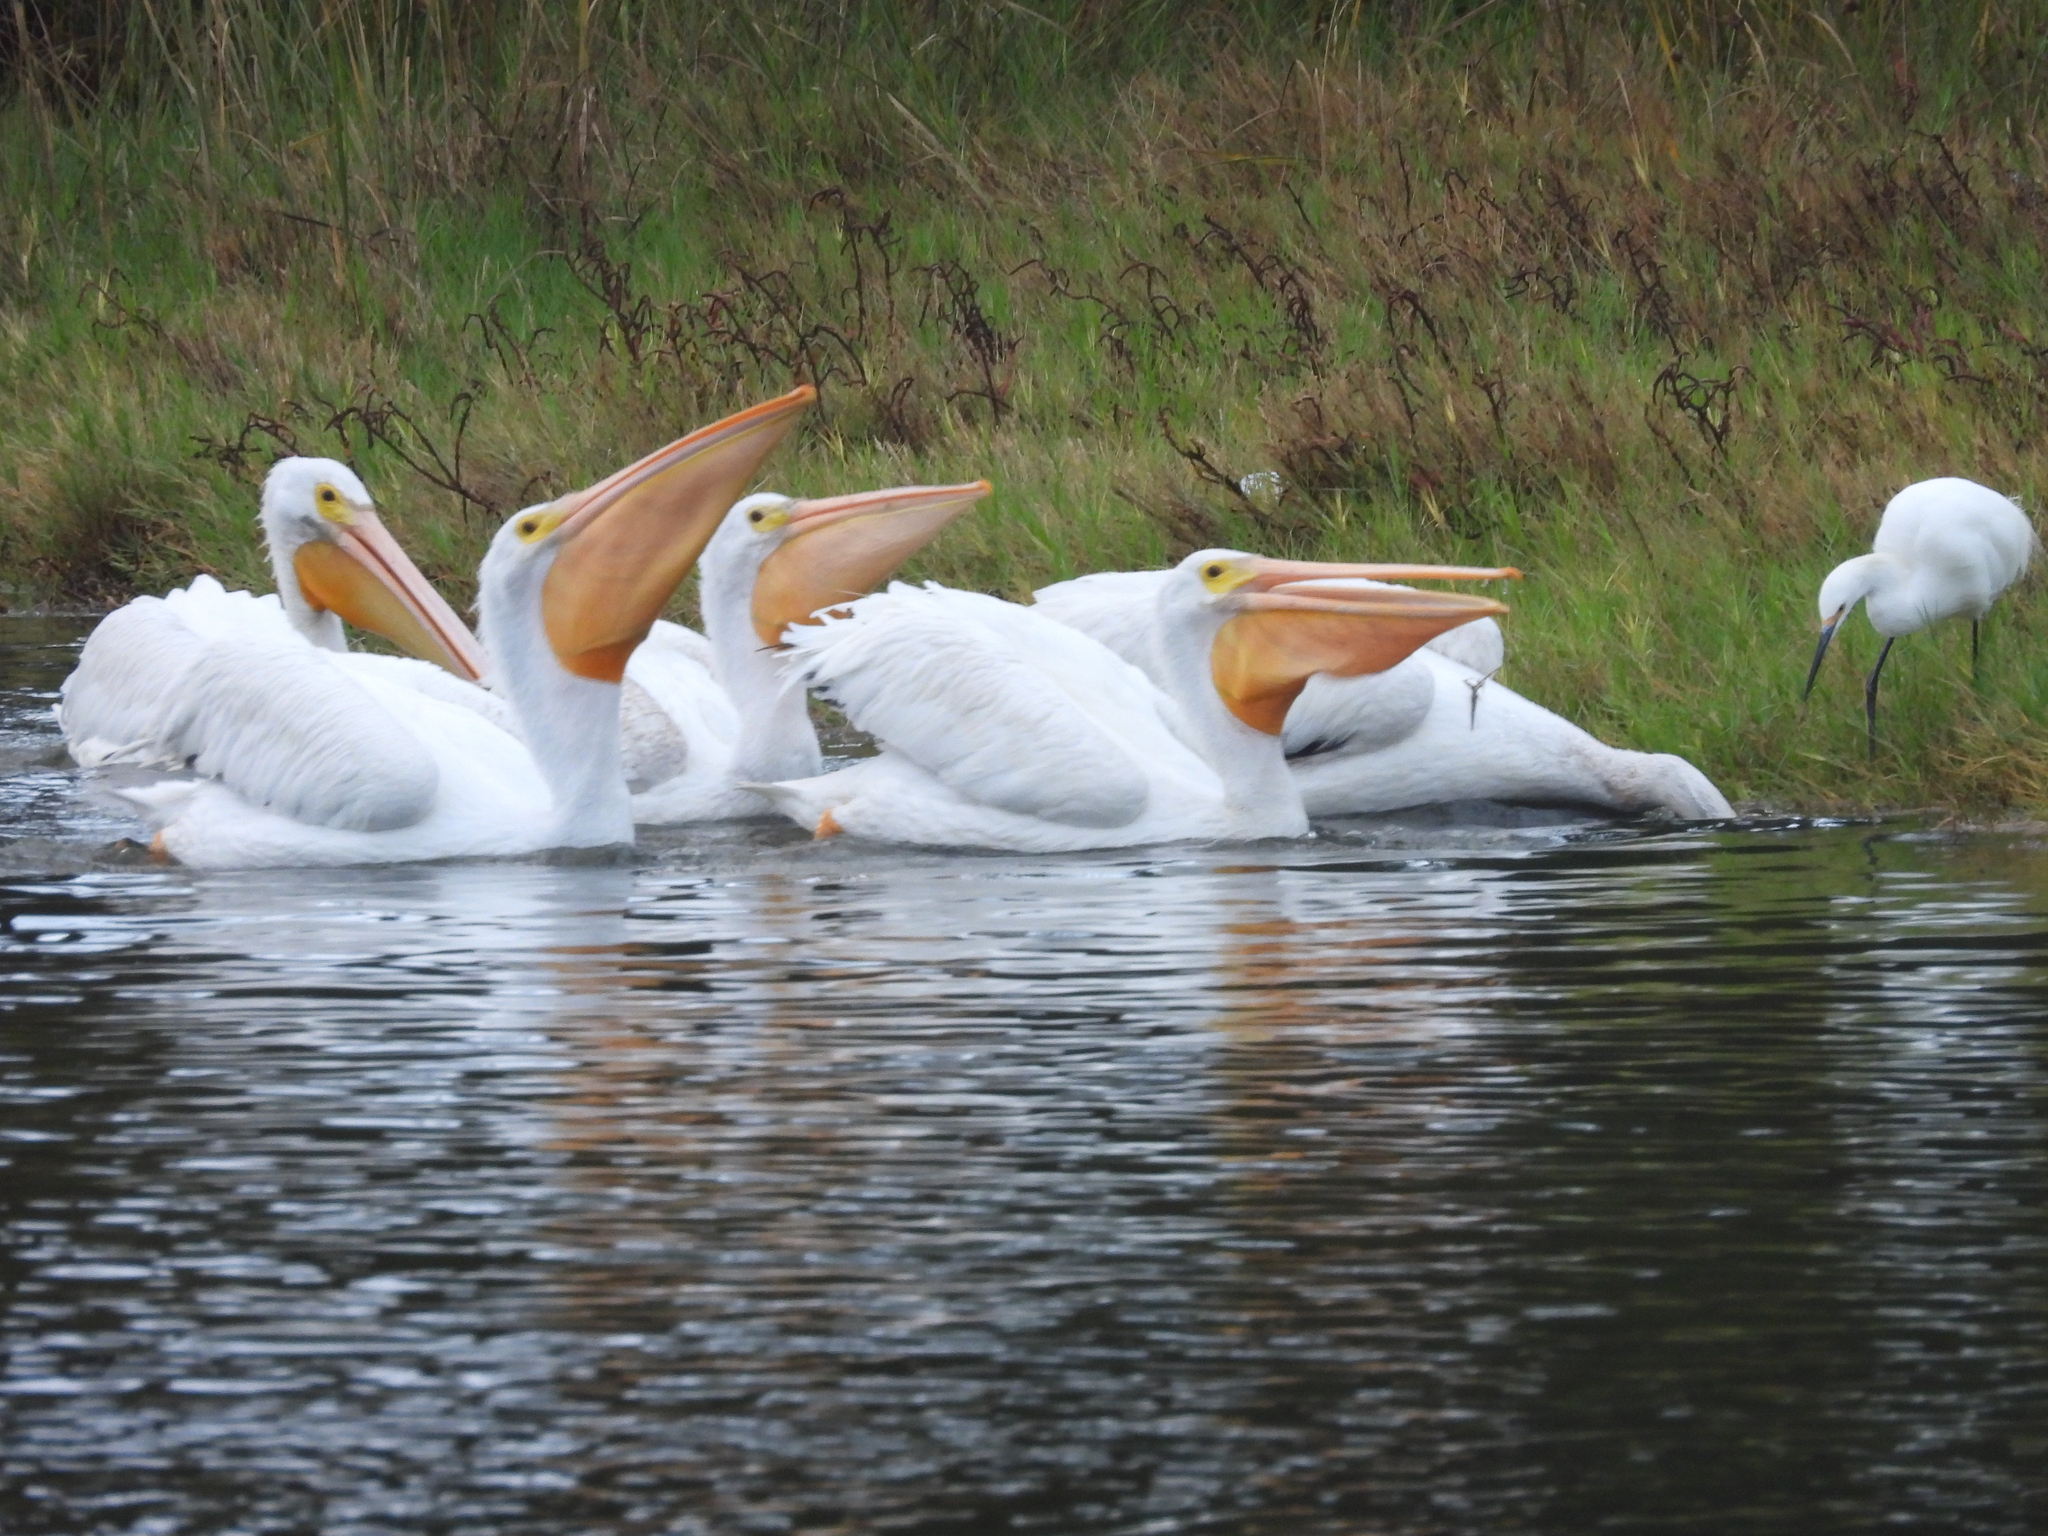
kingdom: Animalia
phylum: Chordata
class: Aves
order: Pelecaniformes
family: Pelecanidae
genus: Pelecanus
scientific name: Pelecanus erythrorhynchos
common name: American white pelican
